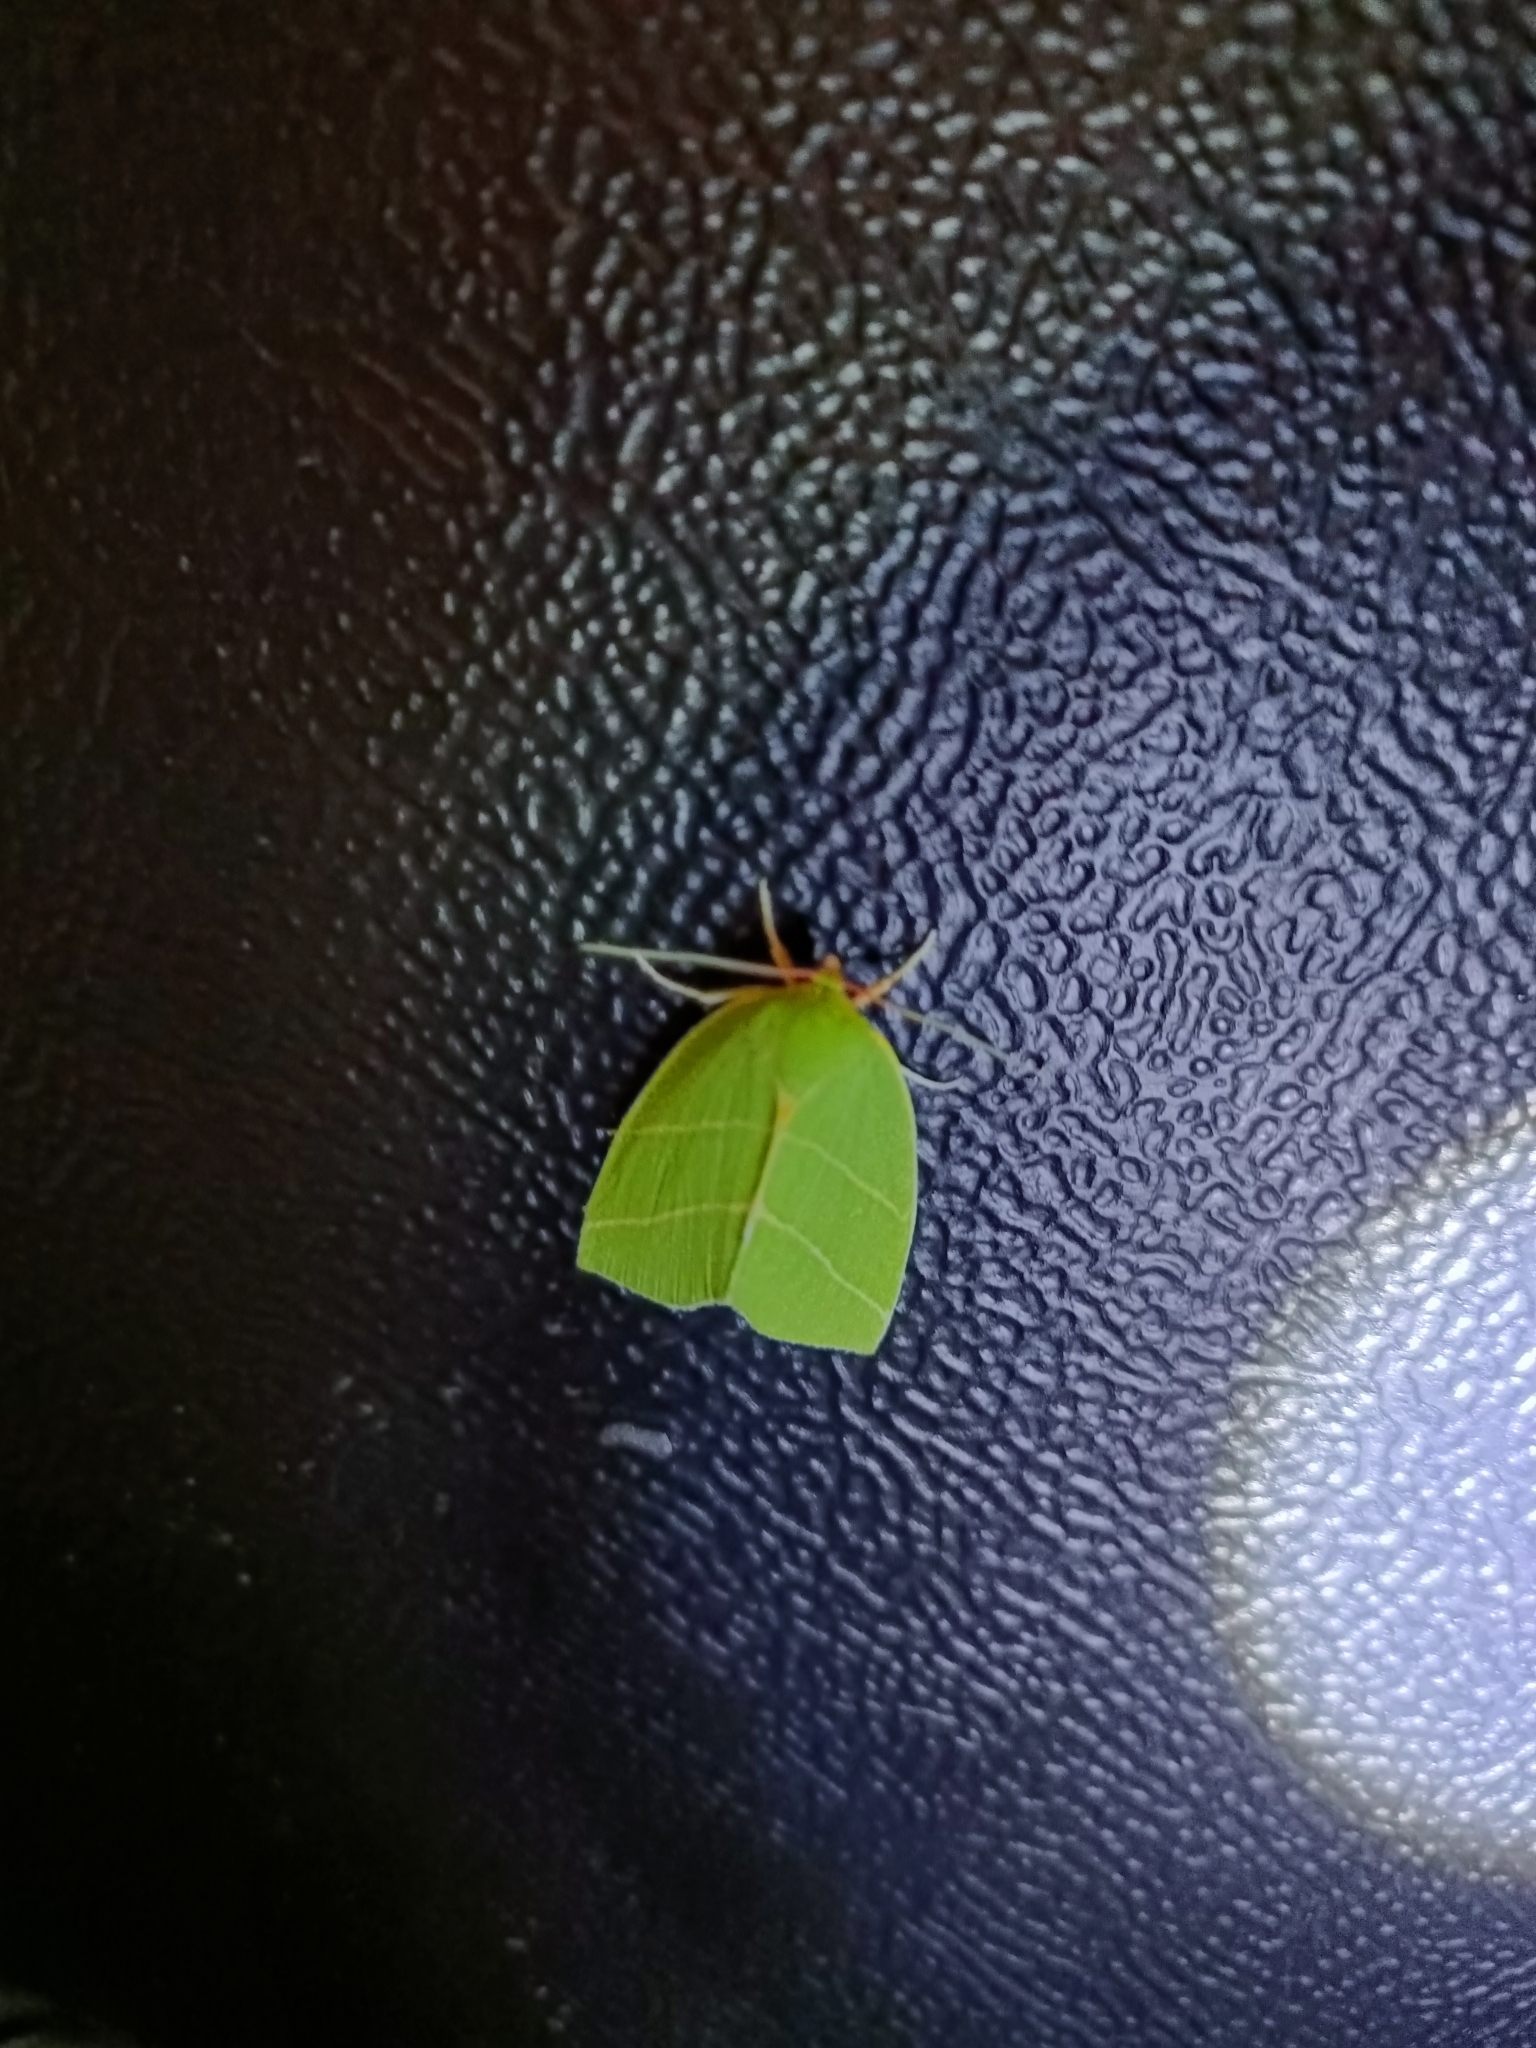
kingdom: Animalia
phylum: Arthropoda
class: Insecta
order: Lepidoptera
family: Nolidae
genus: Bena
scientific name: Bena bicolorana
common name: Scarce silver-lines
